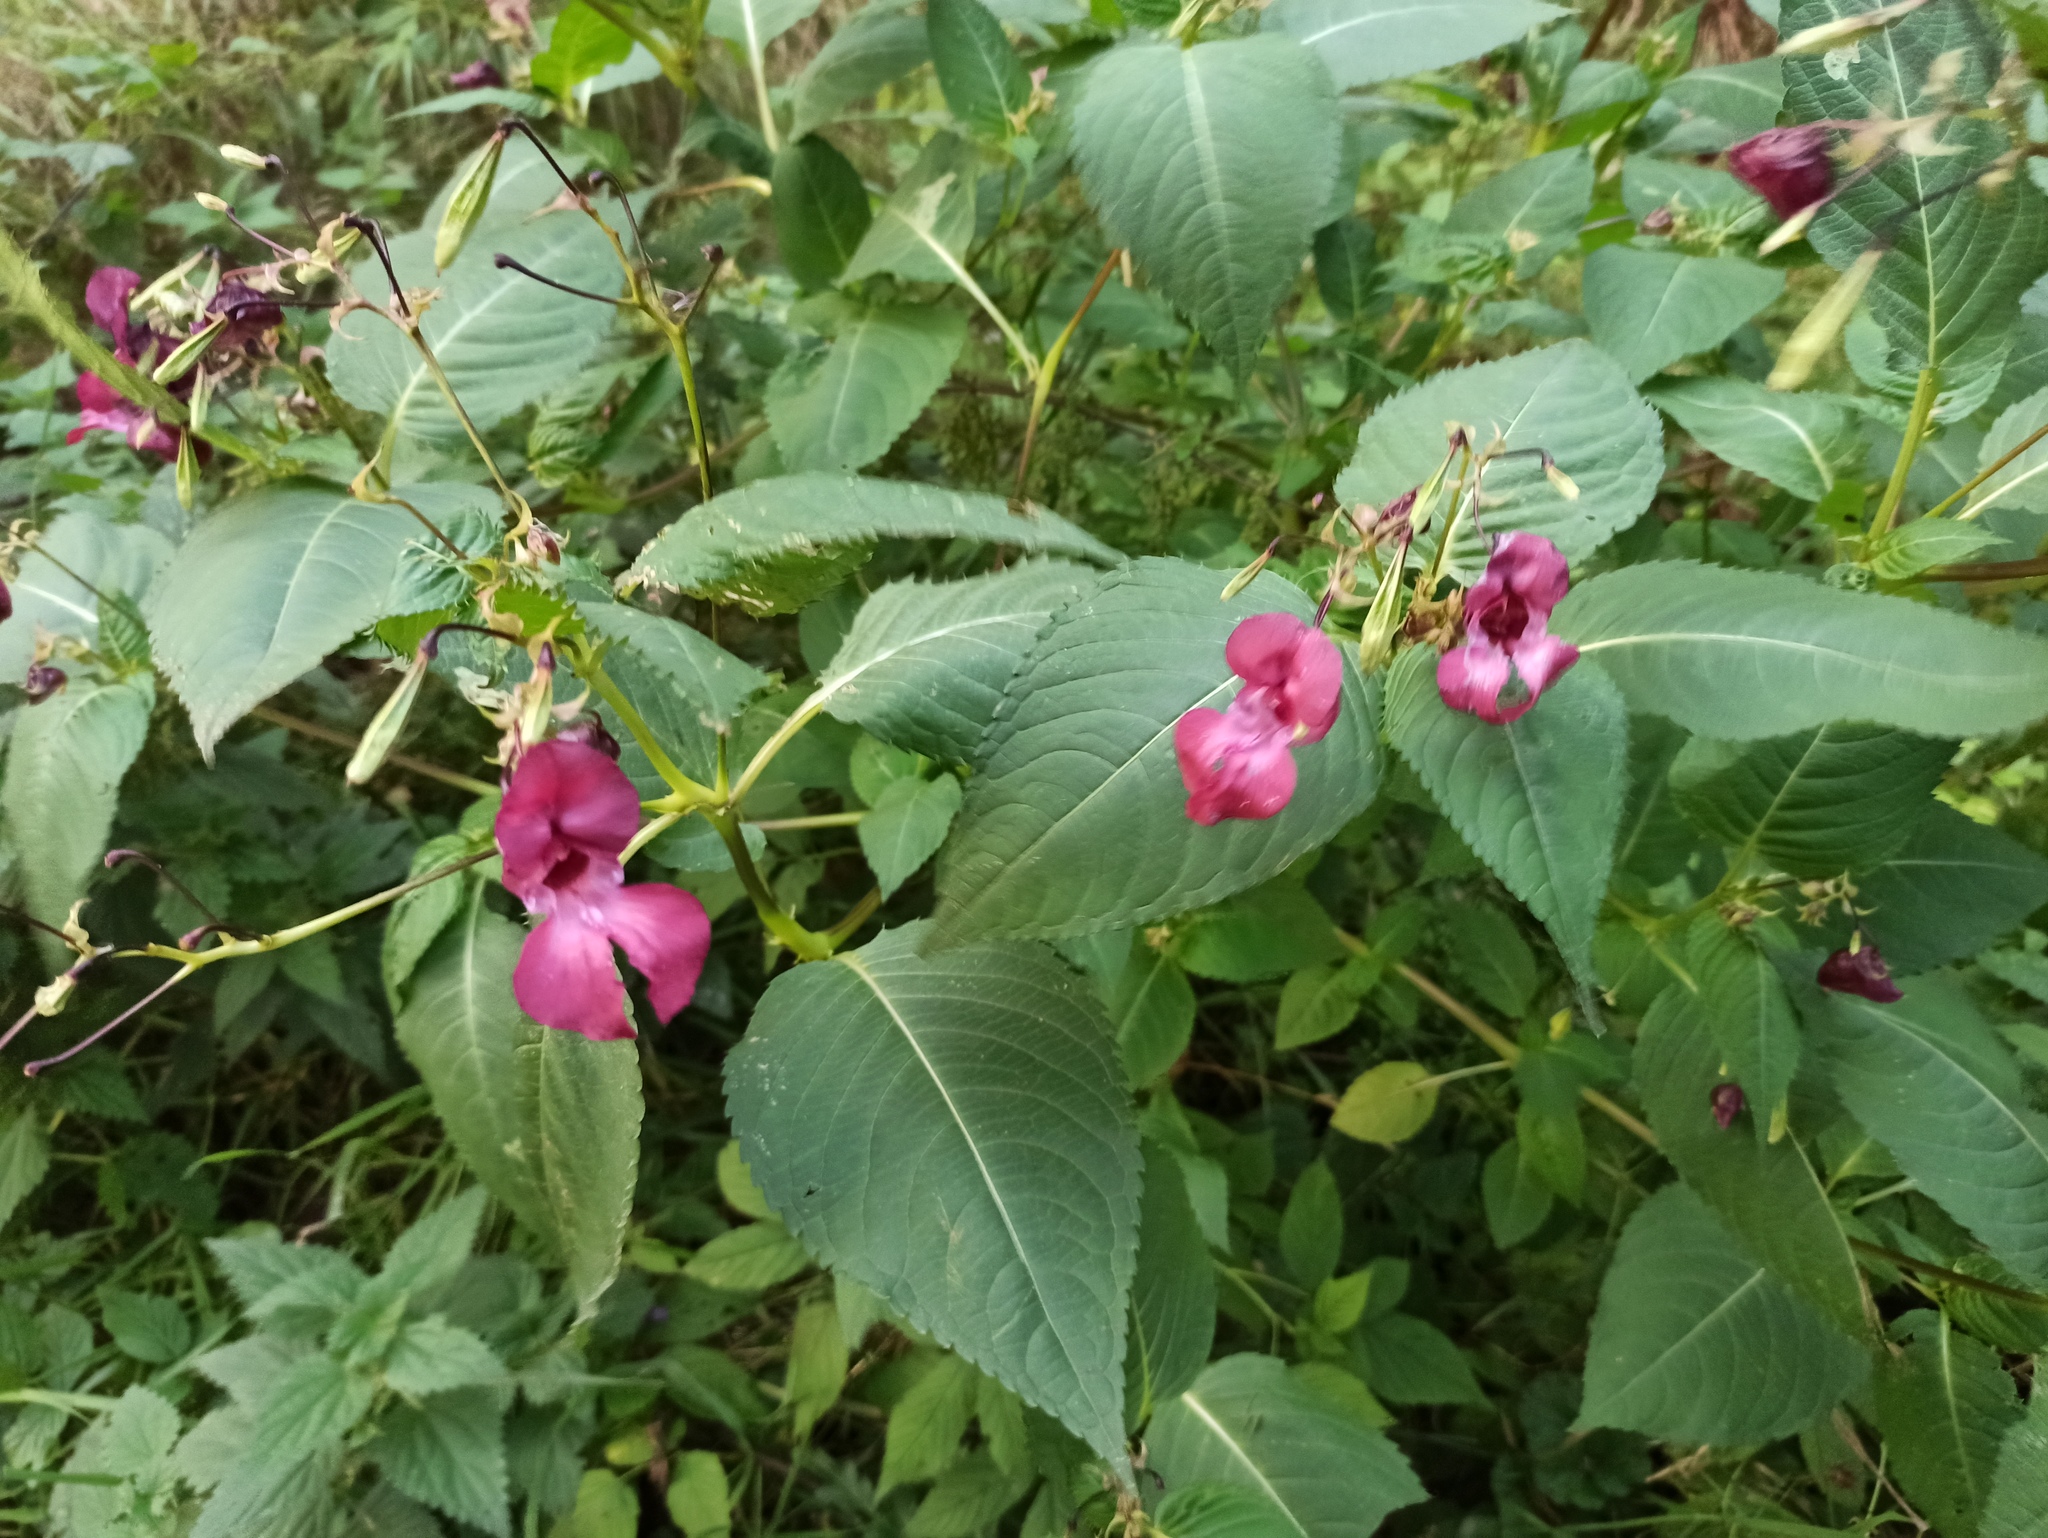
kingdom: Plantae
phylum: Tracheophyta
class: Magnoliopsida
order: Ericales
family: Balsaminaceae
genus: Impatiens
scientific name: Impatiens glandulifera
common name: Himalayan balsam
